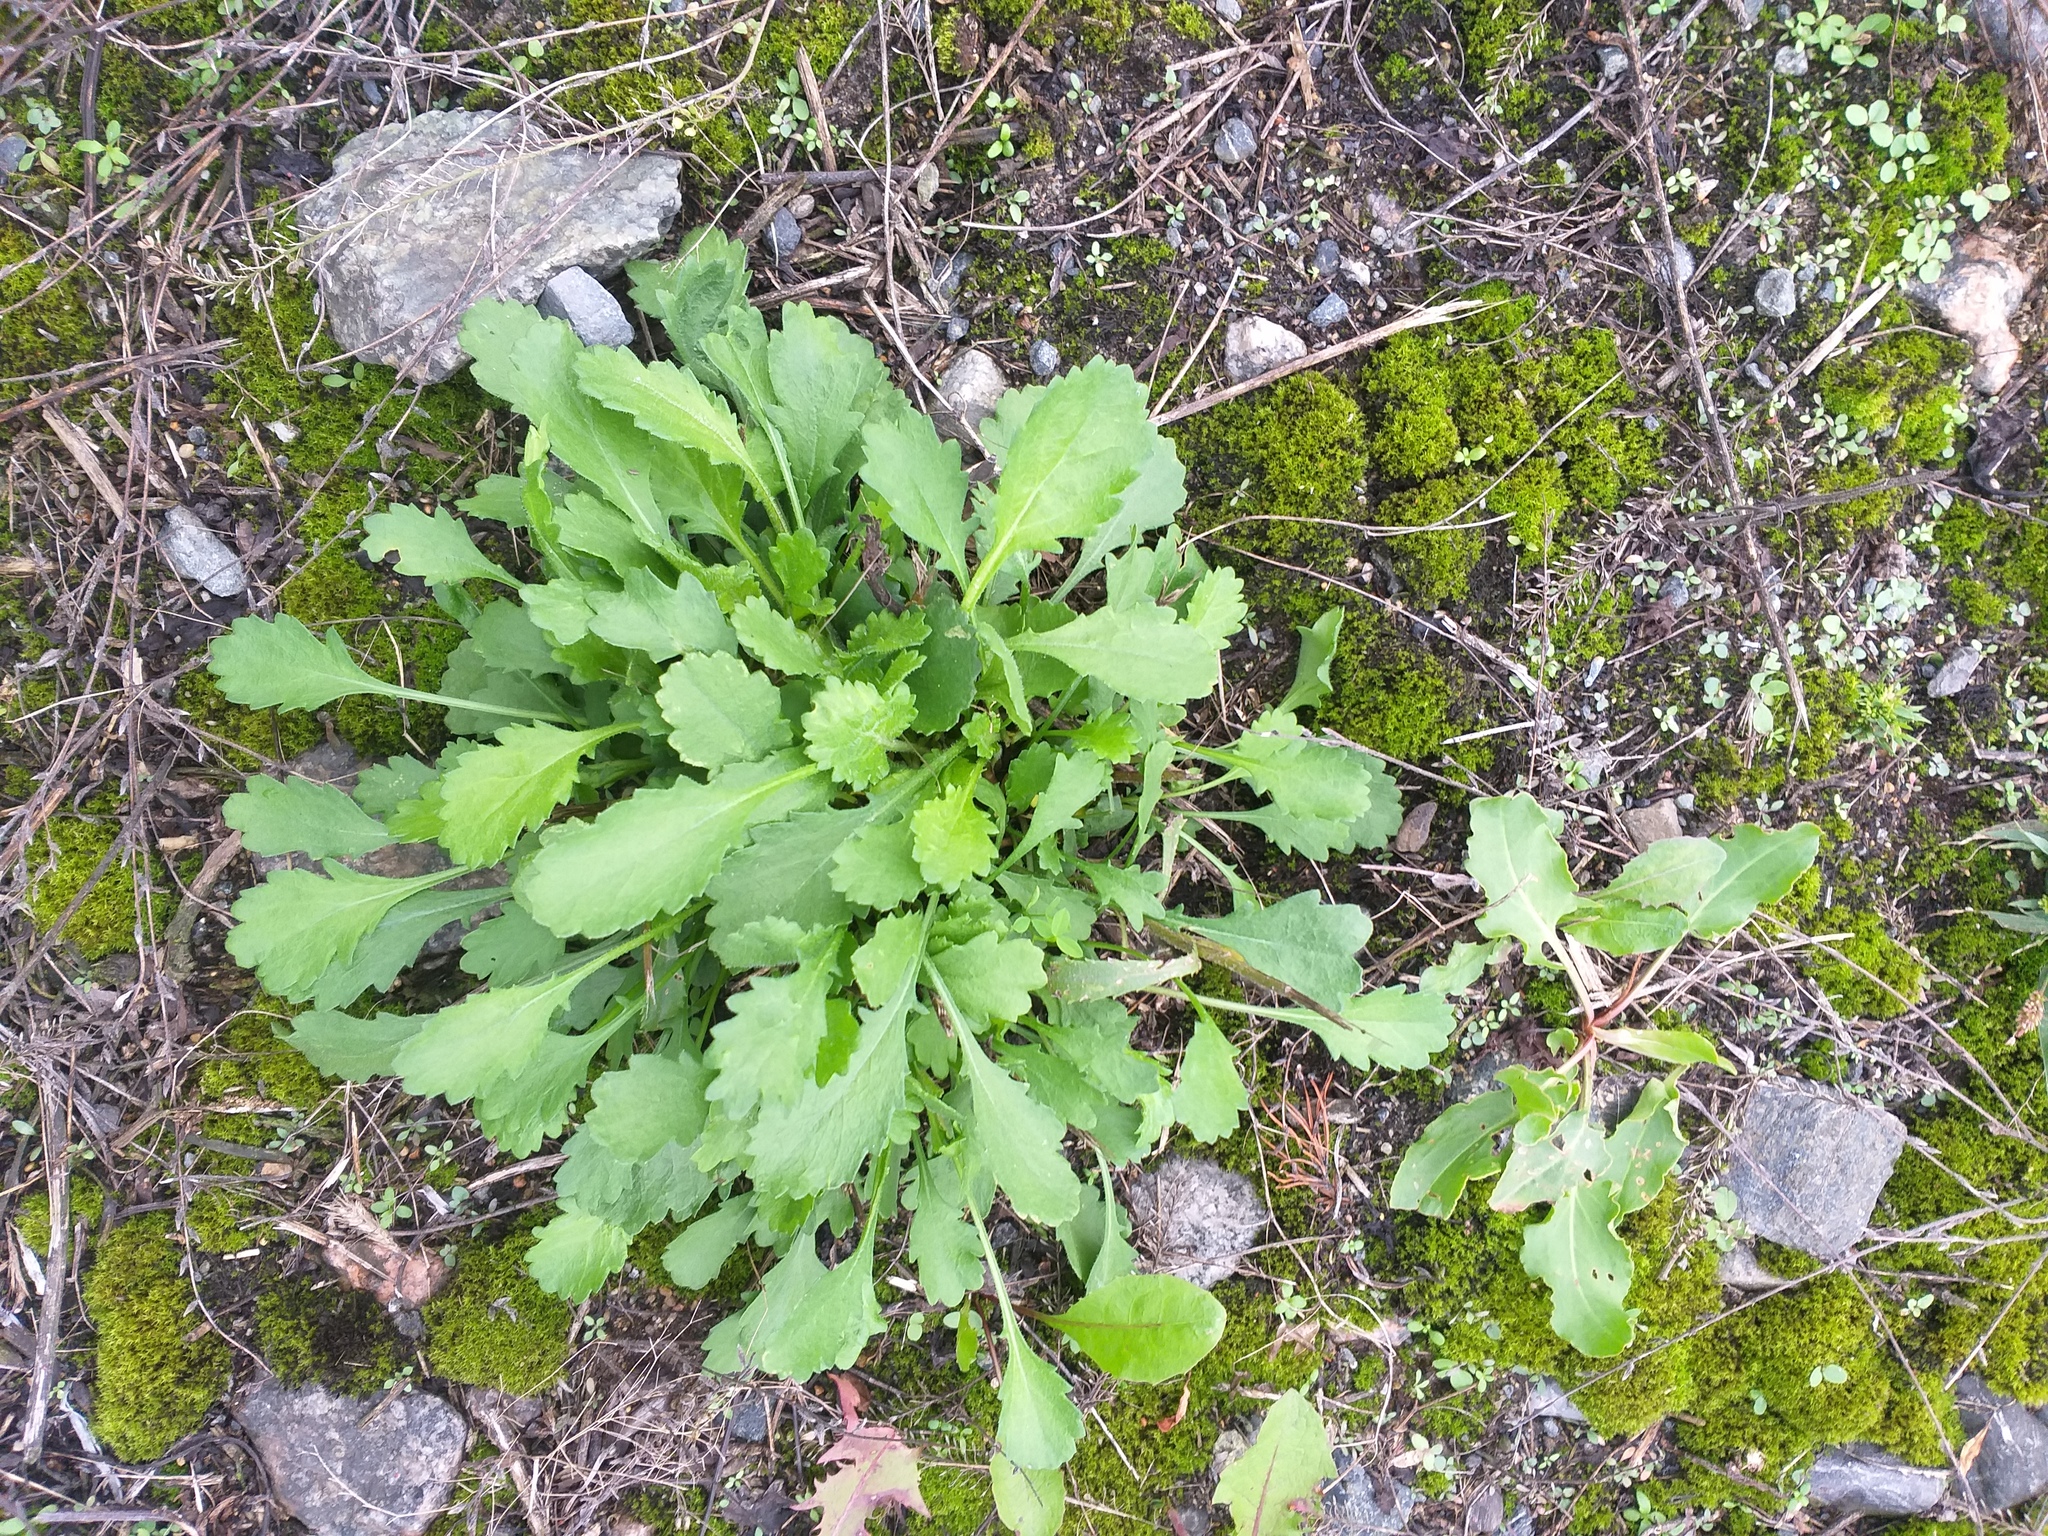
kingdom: Plantae
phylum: Tracheophyta
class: Magnoliopsida
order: Asterales
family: Asteraceae
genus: Leucanthemum
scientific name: Leucanthemum vulgare
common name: Oxeye daisy
